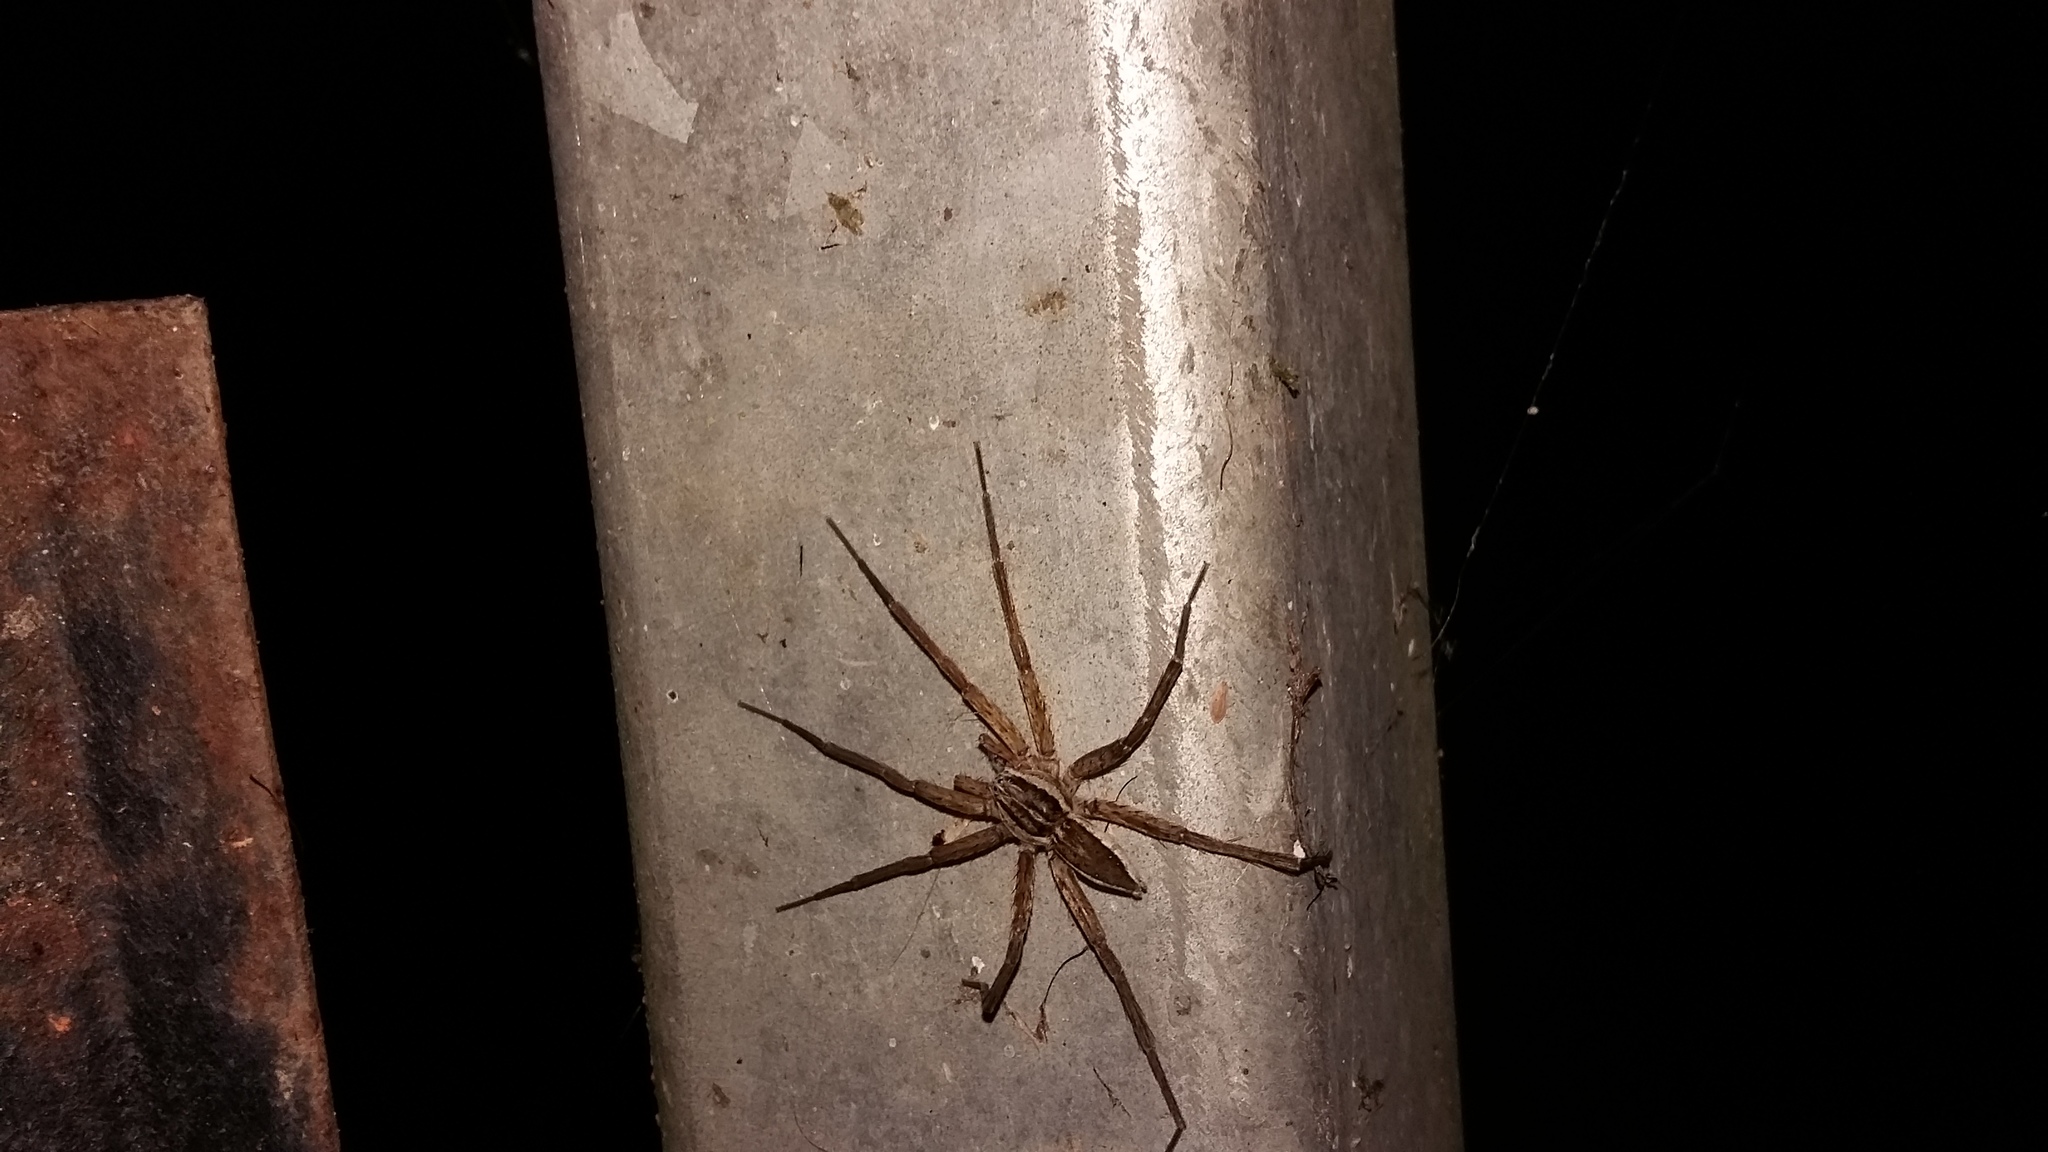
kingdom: Animalia
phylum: Arthropoda
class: Arachnida
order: Araneae
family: Pisauridae
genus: Dolomedes
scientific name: Dolomedes minor
